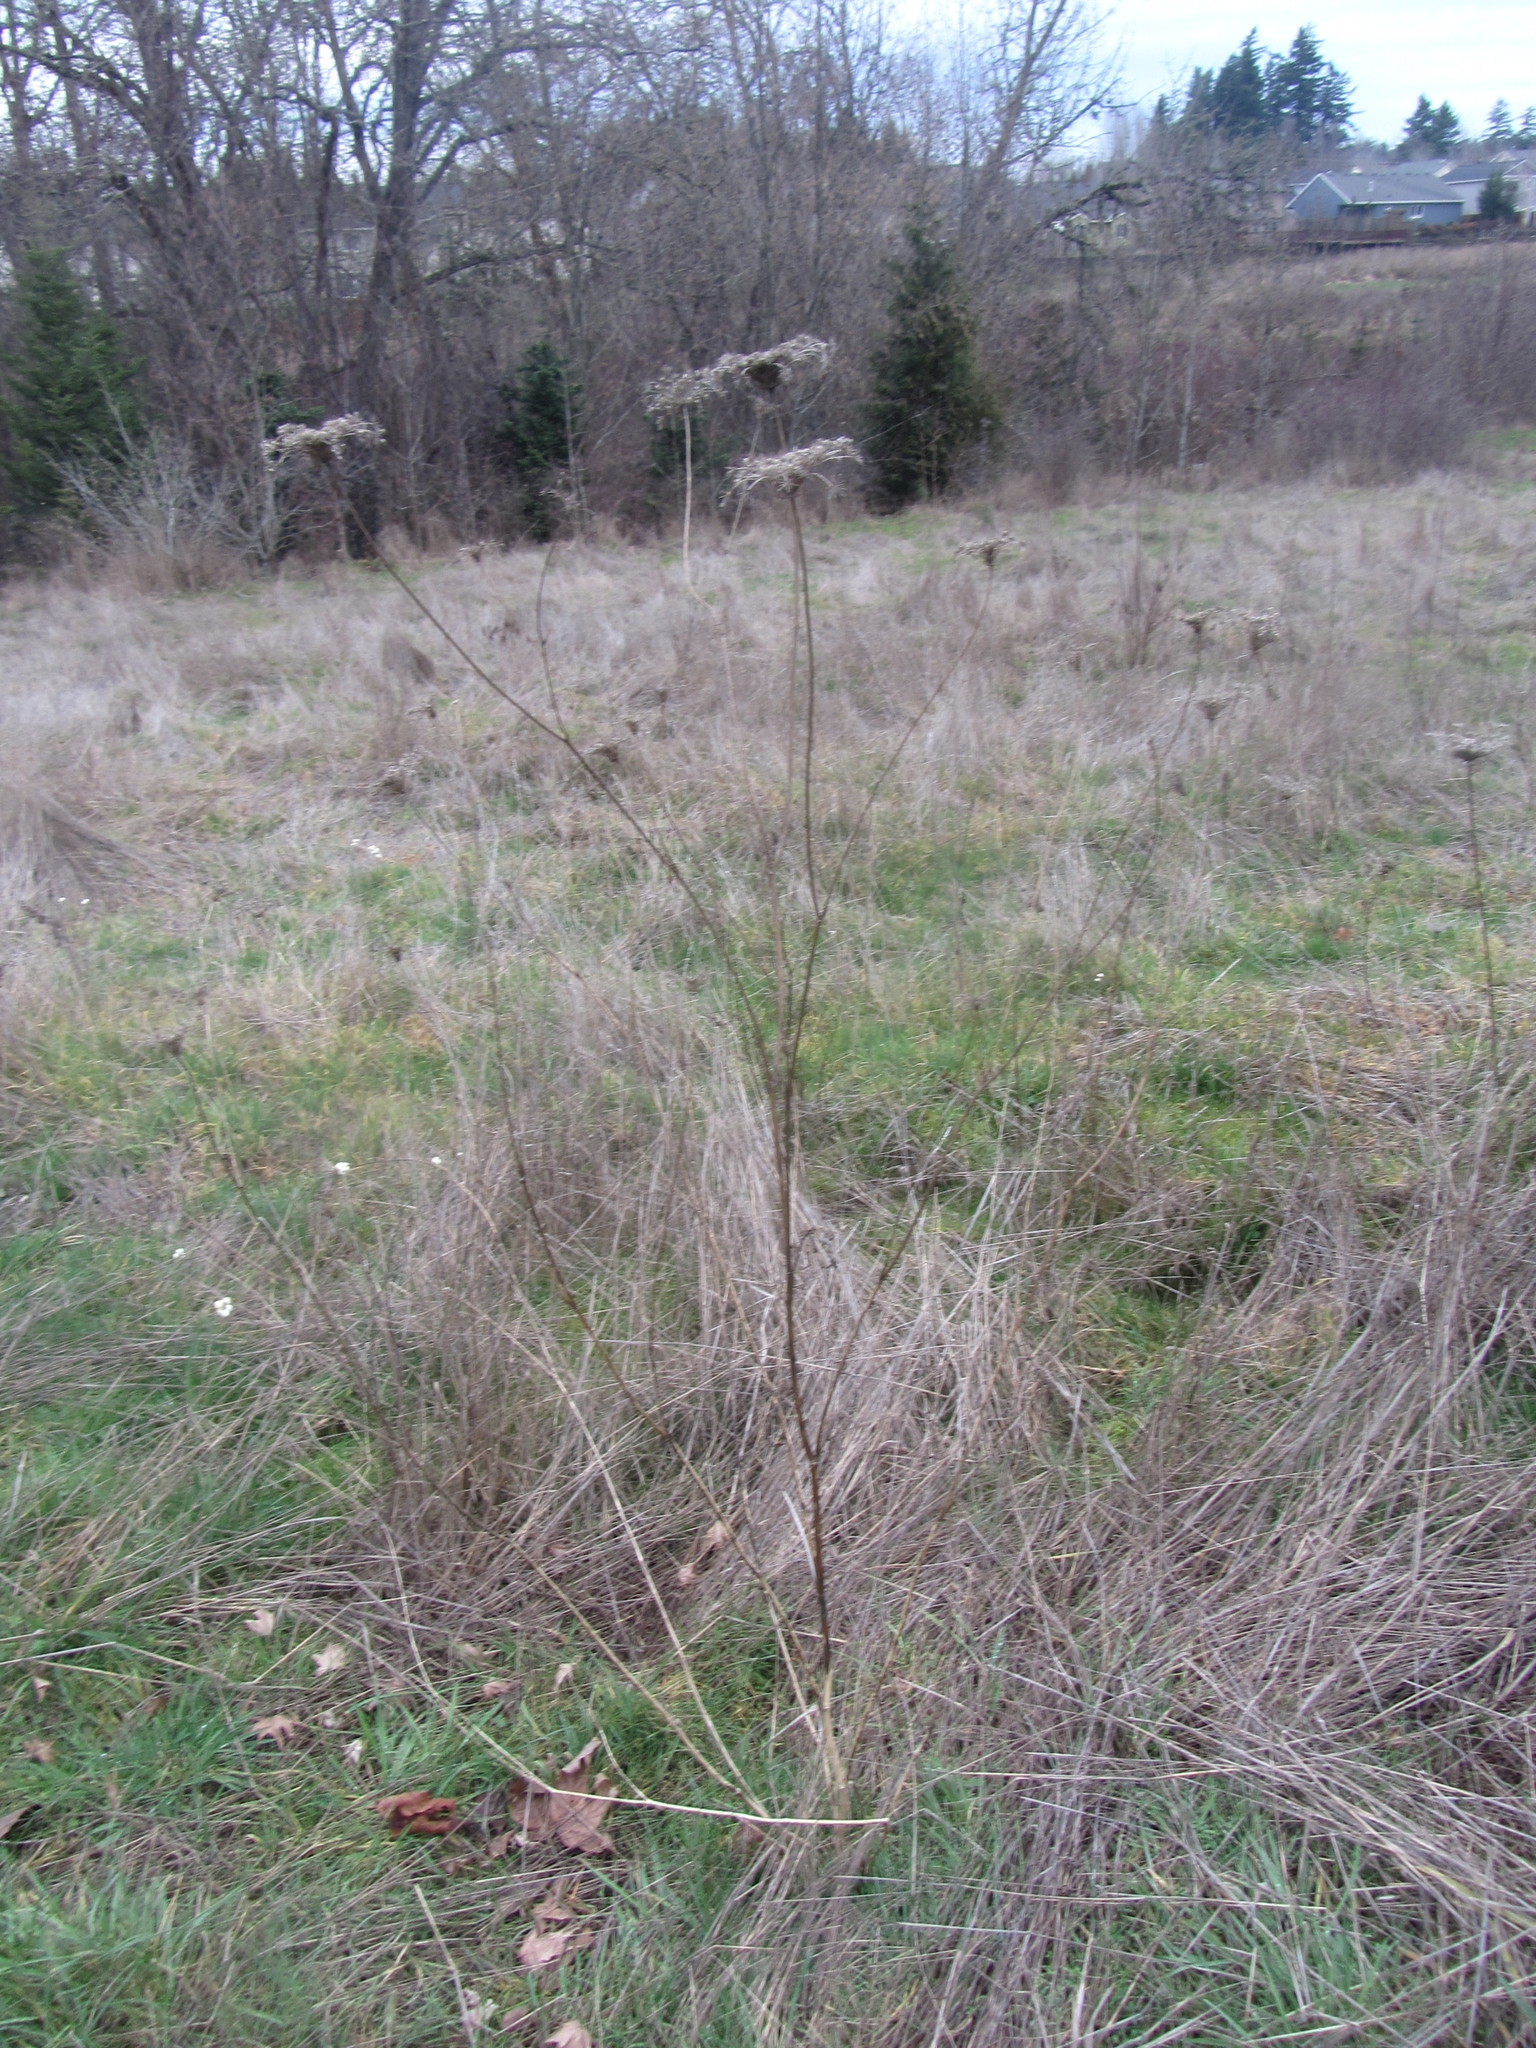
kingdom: Plantae
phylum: Tracheophyta
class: Magnoliopsida
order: Apiales
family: Apiaceae
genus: Daucus
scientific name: Daucus carota
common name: Wild carrot
